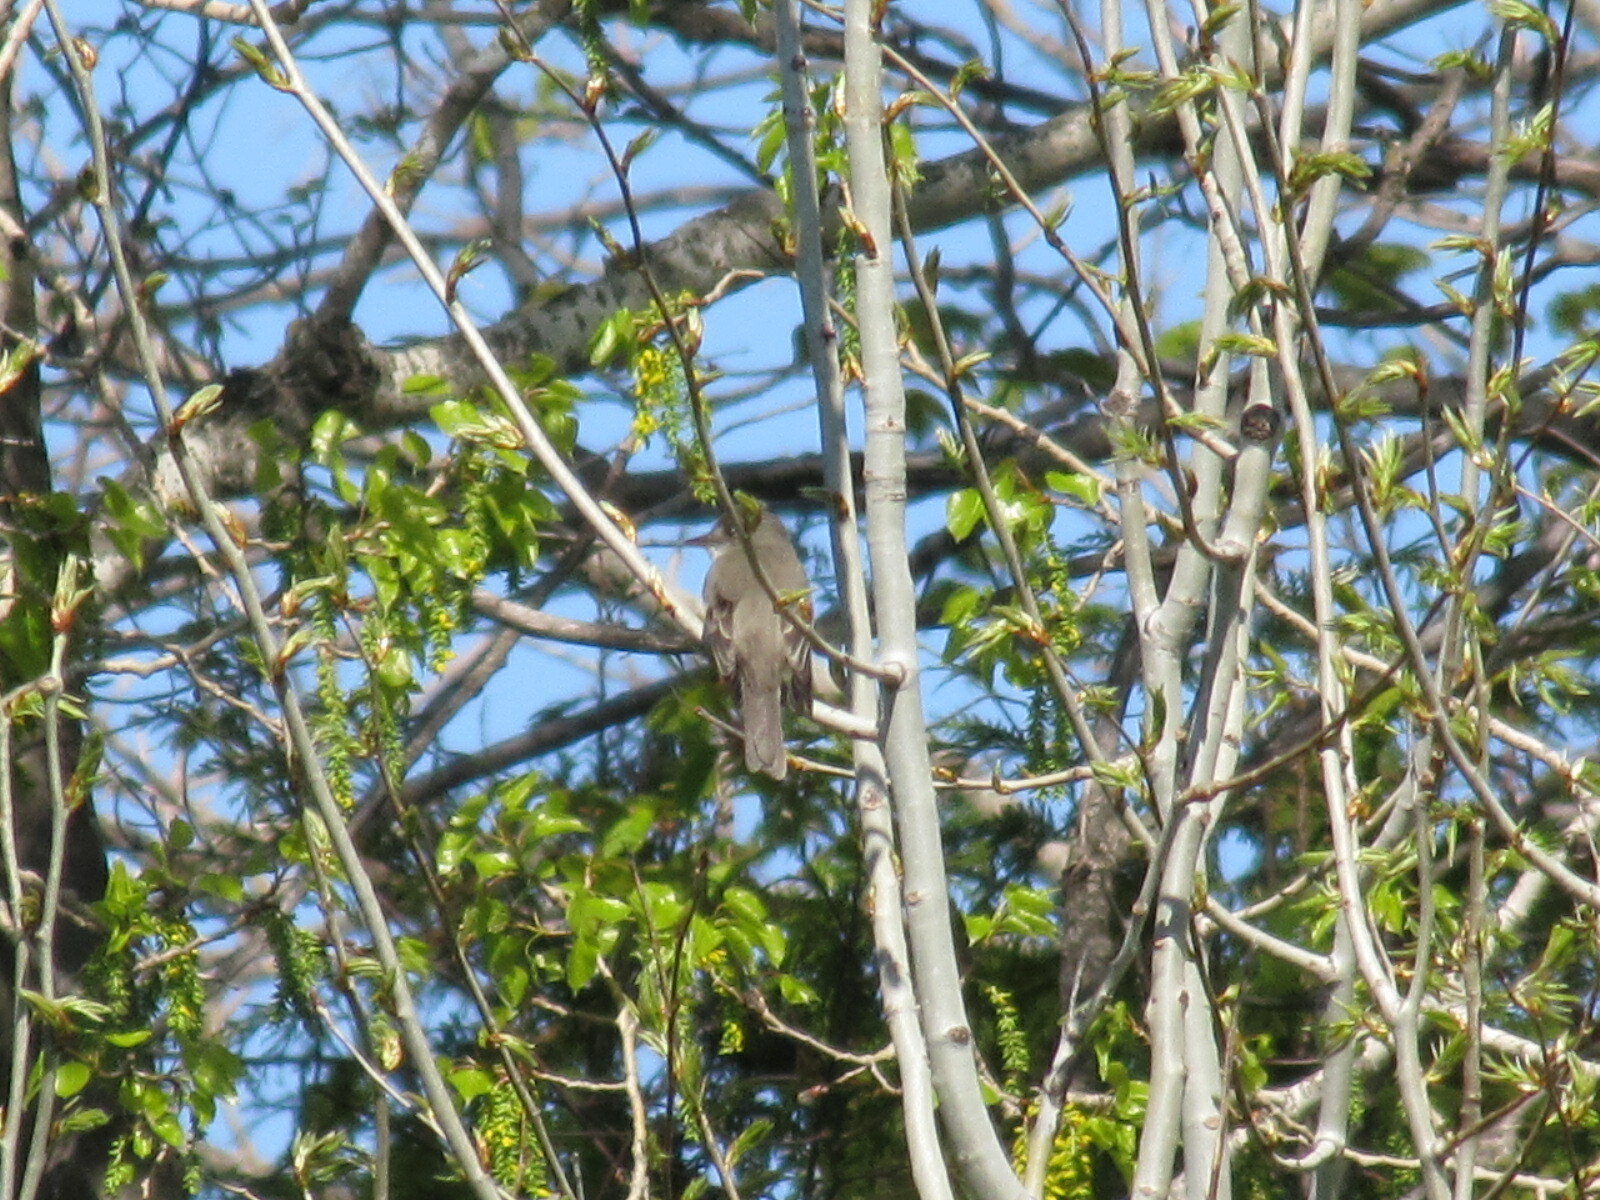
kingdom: Animalia
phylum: Chordata
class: Aves
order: Passeriformes
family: Tyrannidae
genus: Contopus
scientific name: Contopus virens
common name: Eastern wood-pewee
